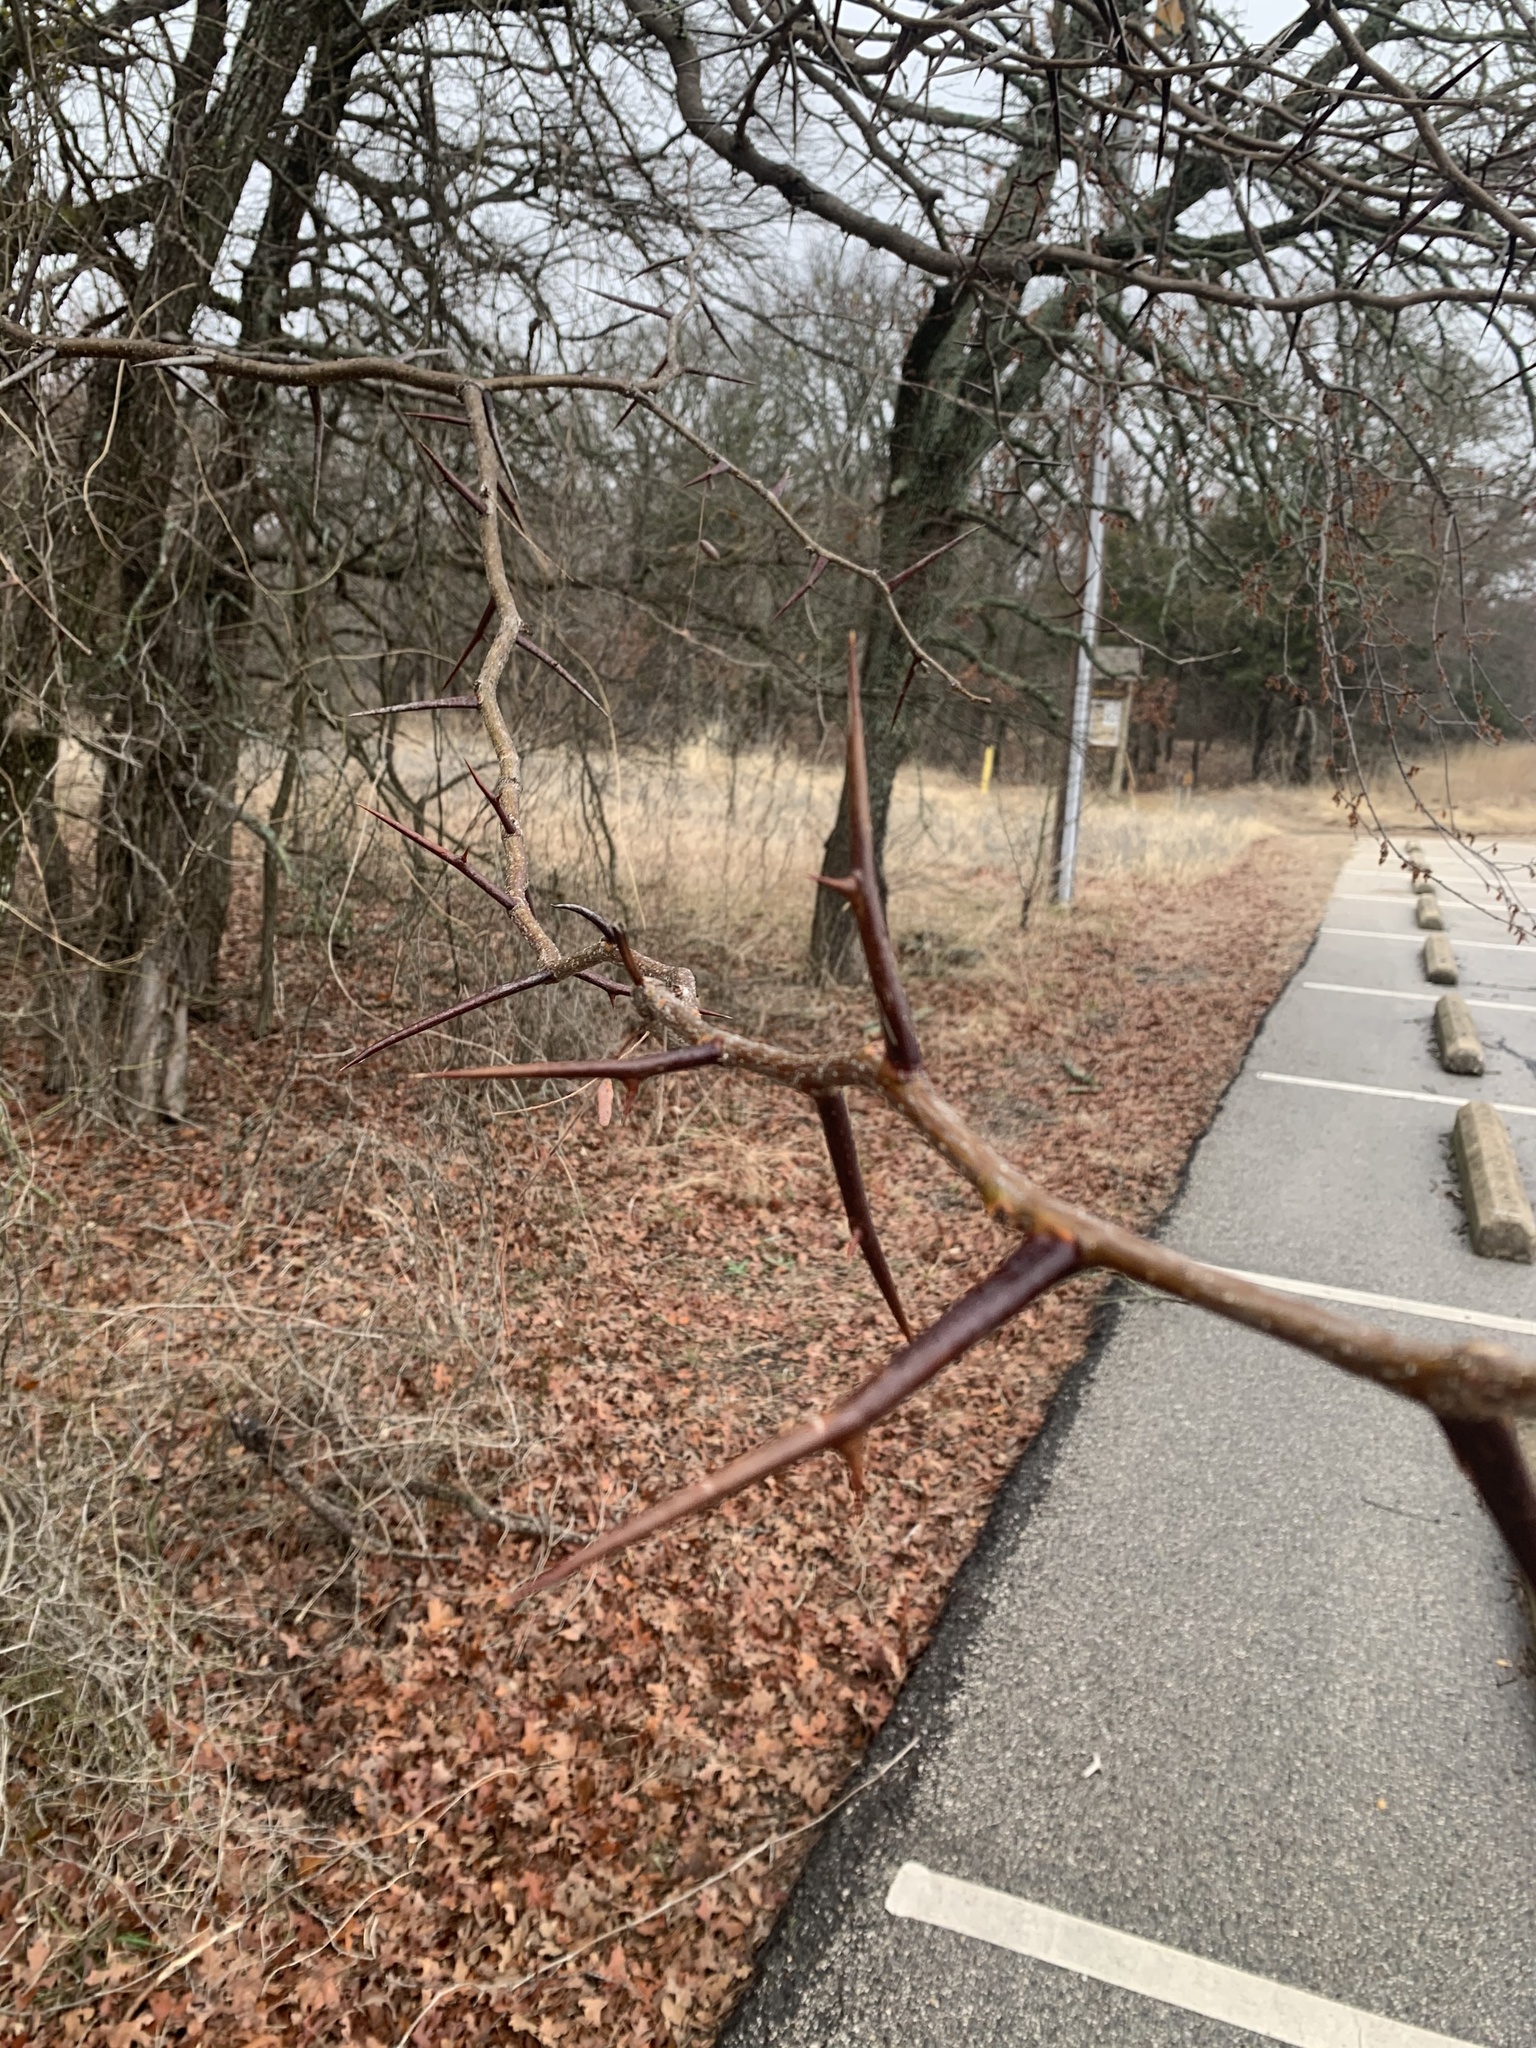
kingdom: Plantae
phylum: Tracheophyta
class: Magnoliopsida
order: Fabales
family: Fabaceae
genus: Gleditsia
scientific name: Gleditsia triacanthos
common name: Common honeylocust
